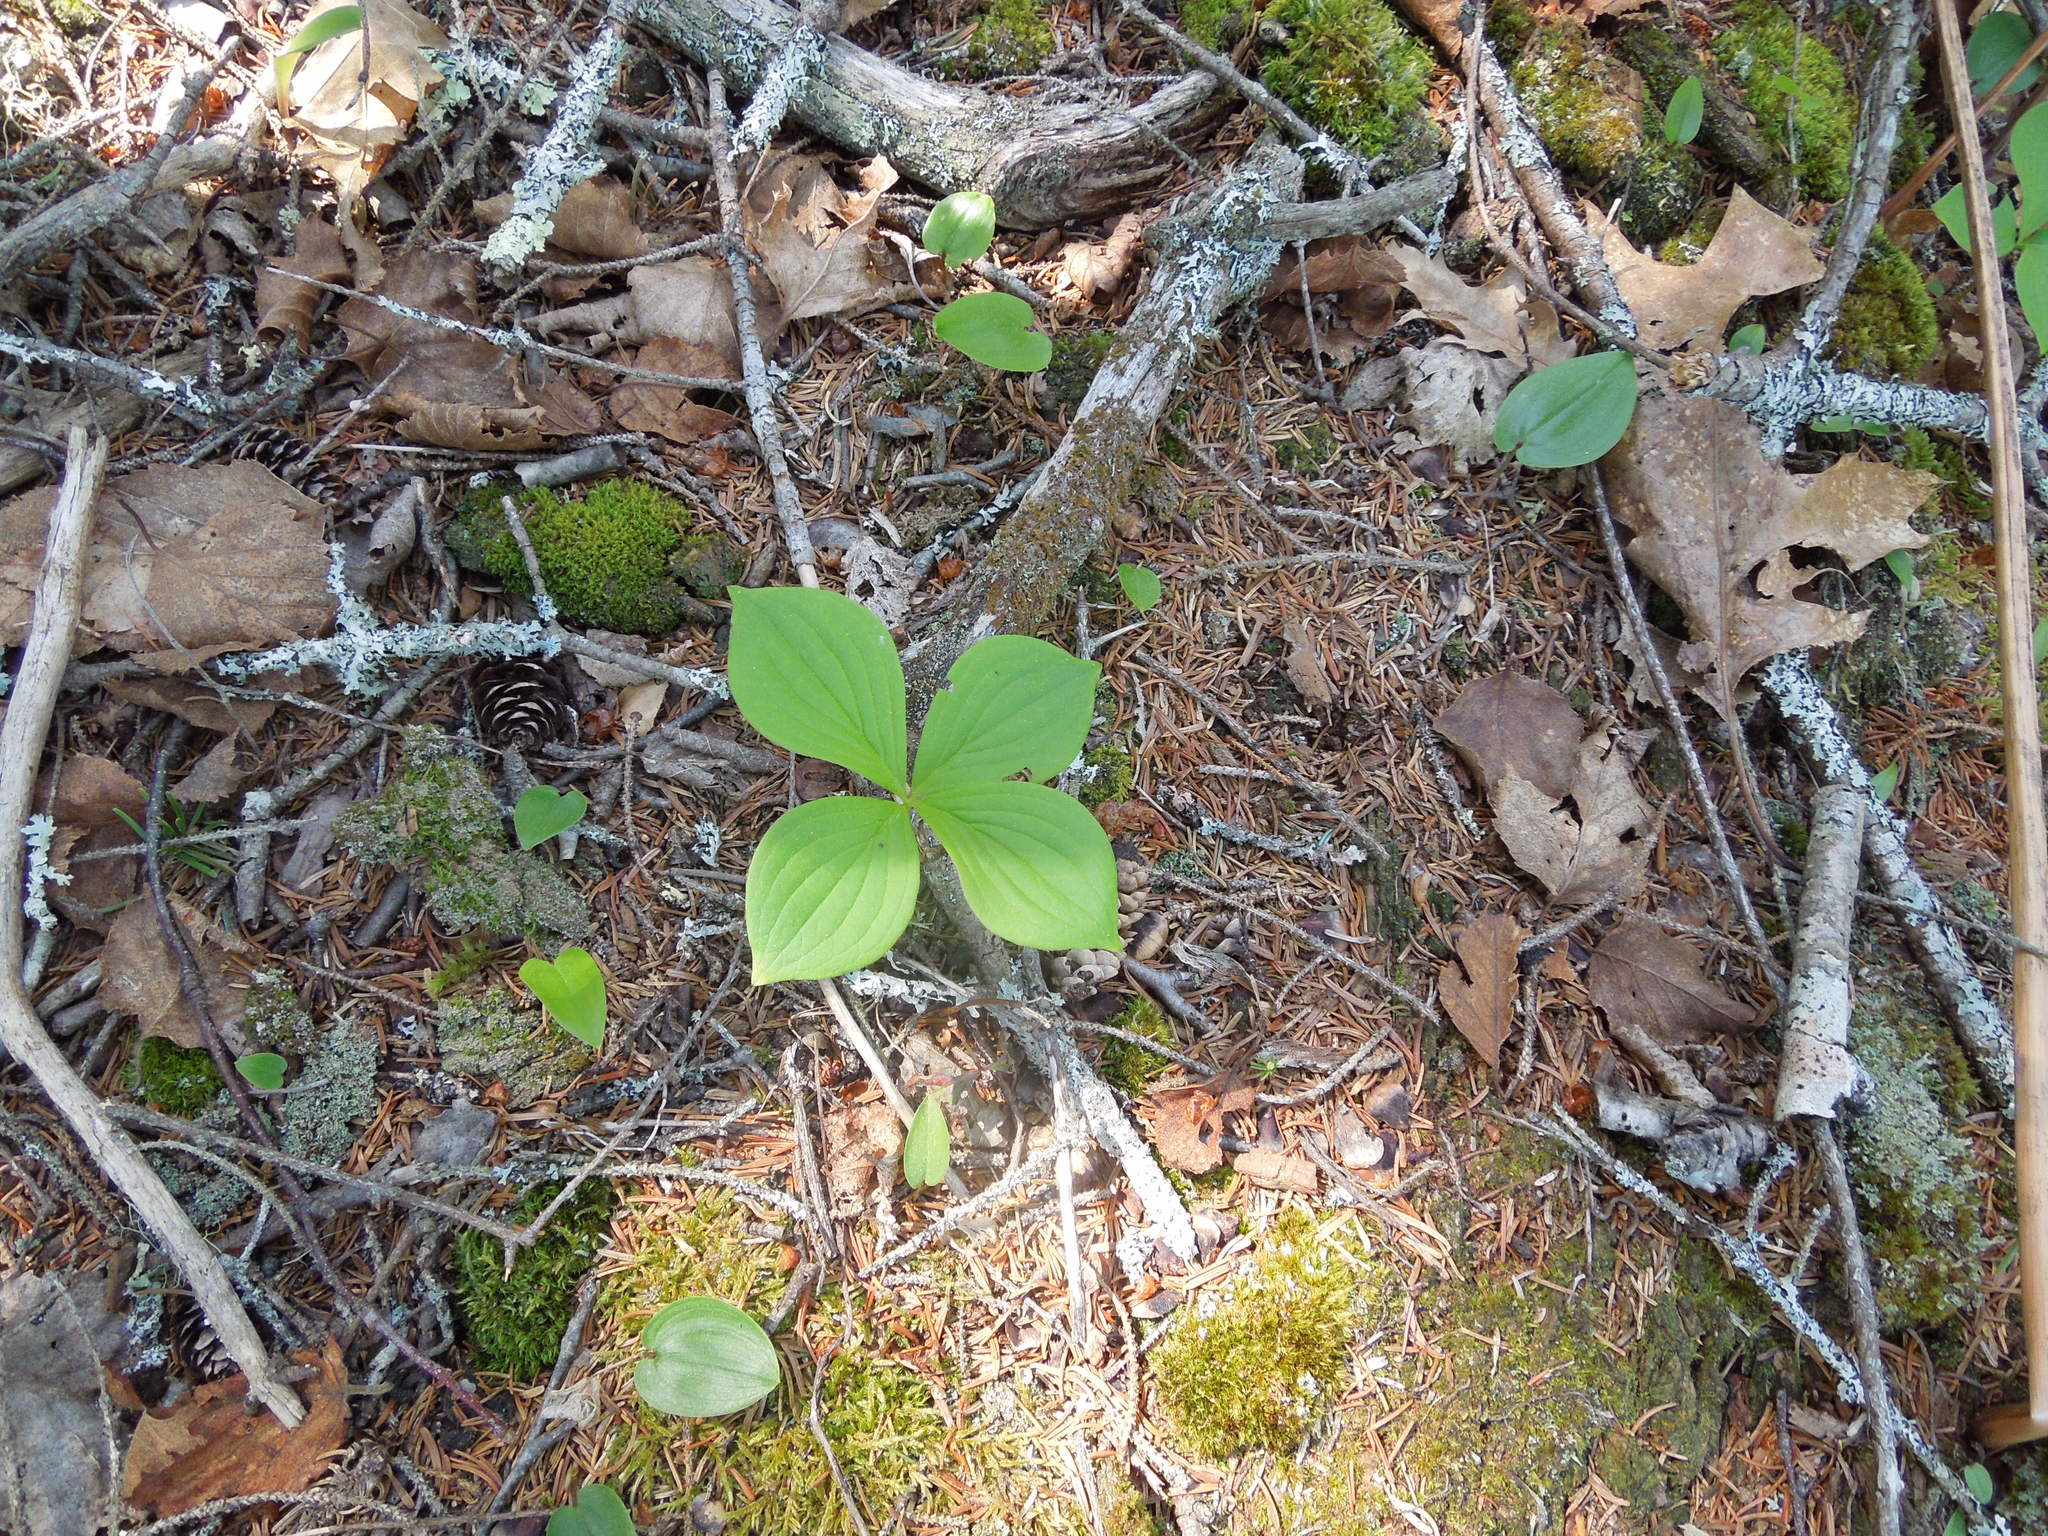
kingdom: Plantae
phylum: Tracheophyta
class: Magnoliopsida
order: Cornales
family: Cornaceae
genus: Cornus
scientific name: Cornus canadensis
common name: Creeping dogwood
